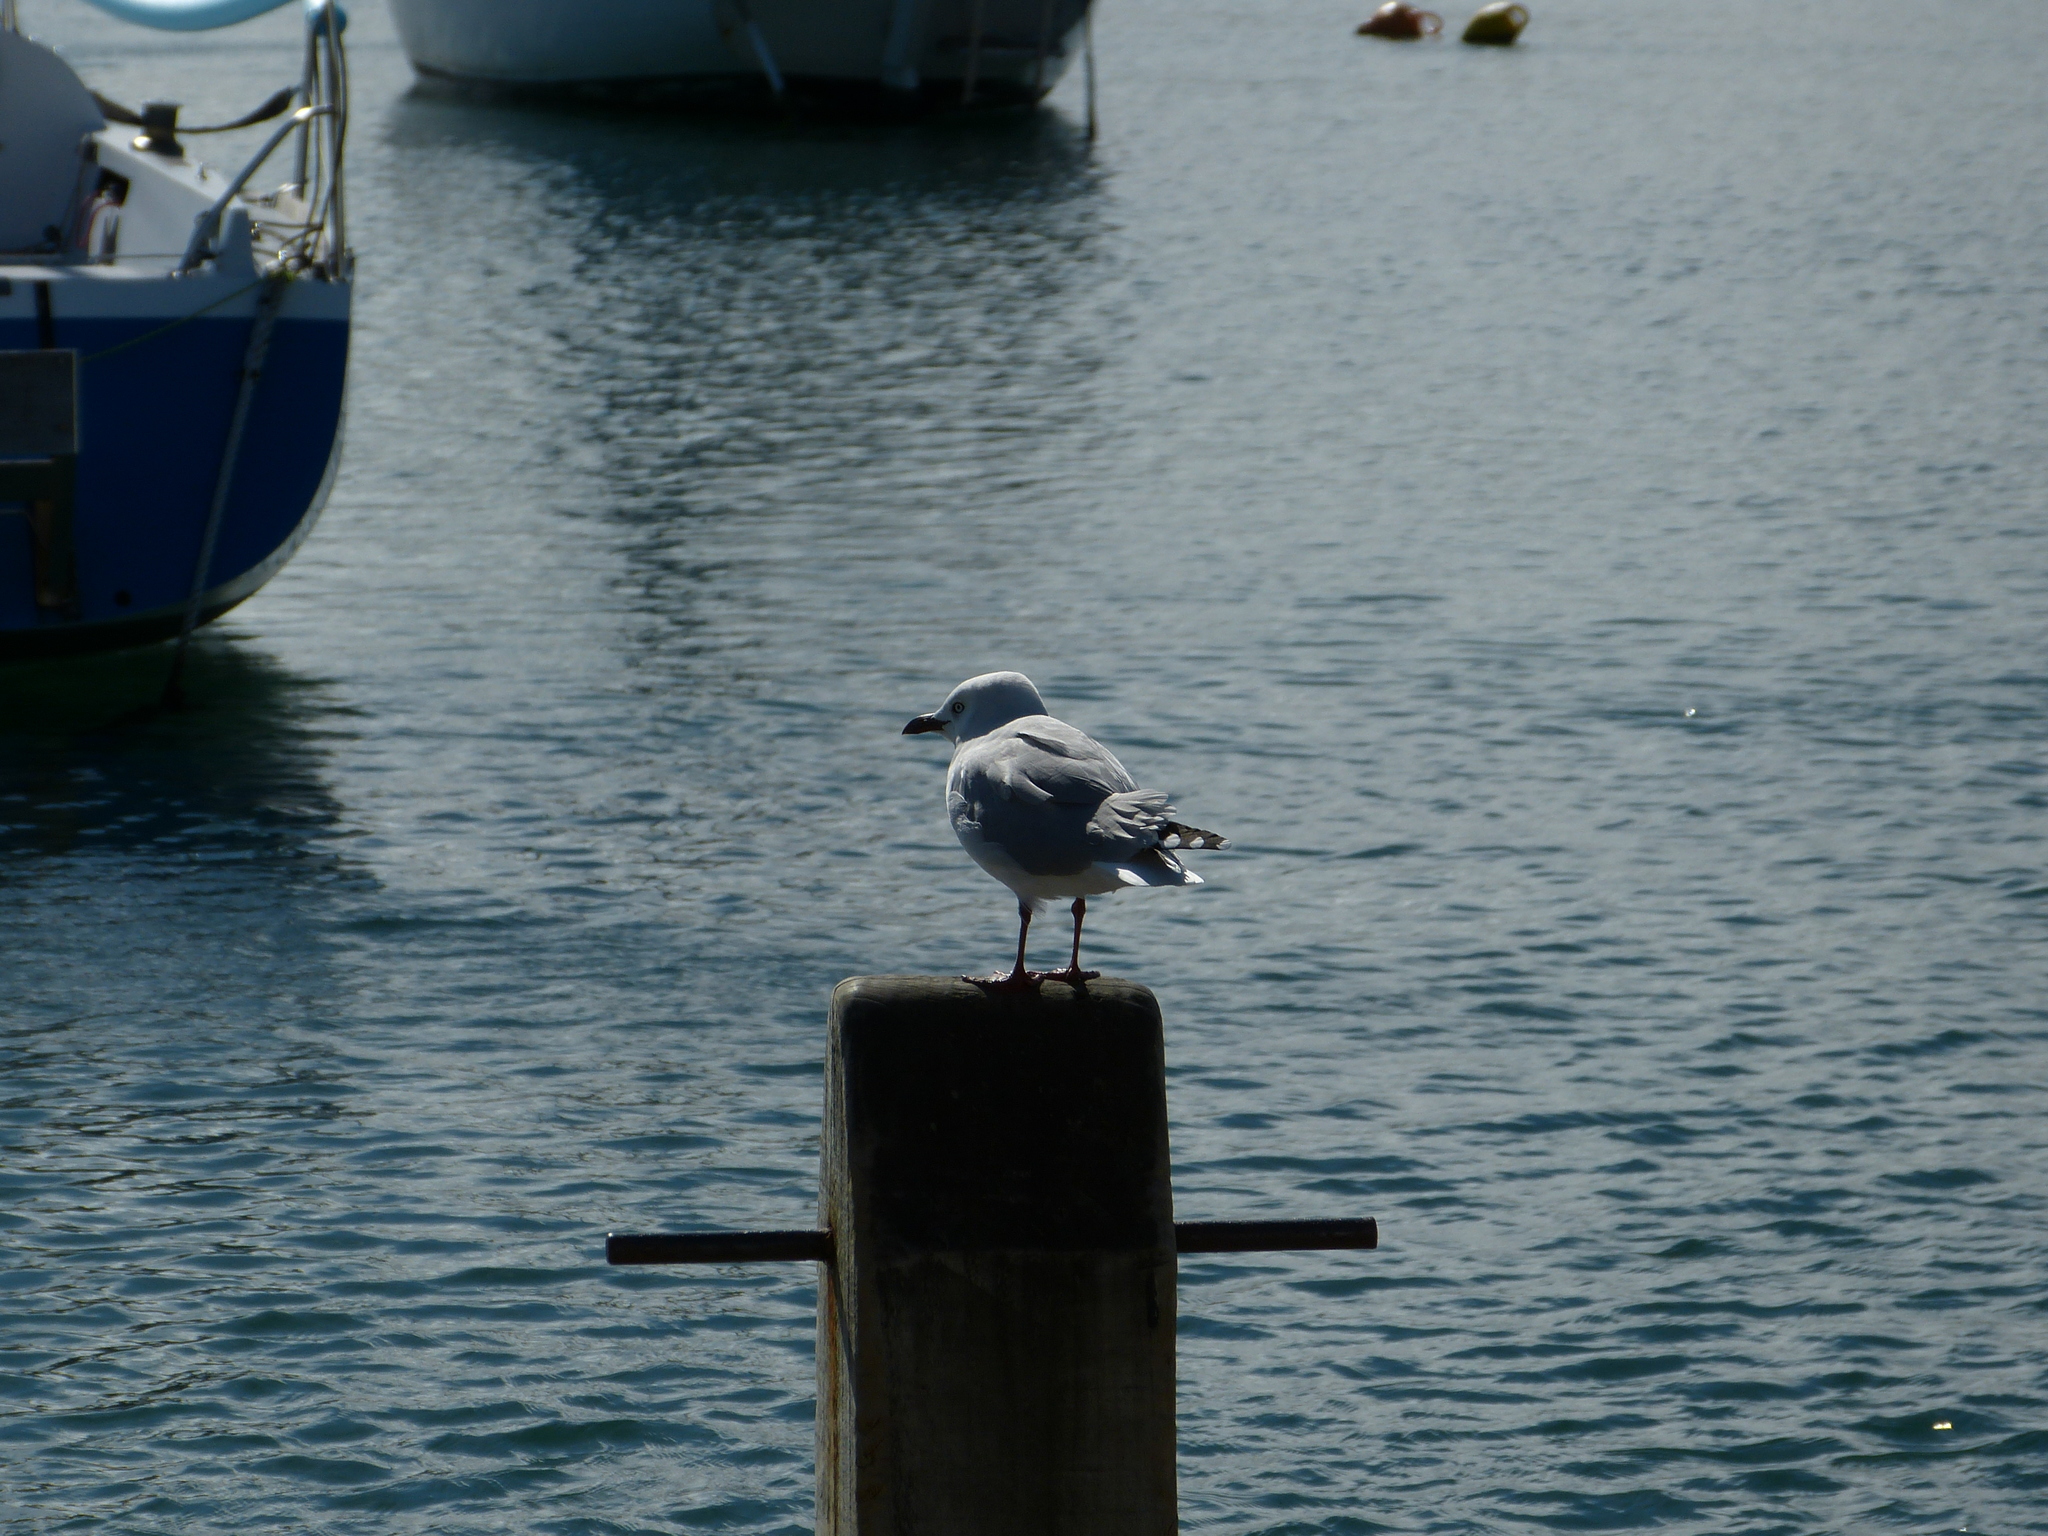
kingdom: Animalia
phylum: Chordata
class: Aves
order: Charadriiformes
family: Laridae
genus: Chroicocephalus
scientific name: Chroicocephalus novaehollandiae
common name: Silver gull
